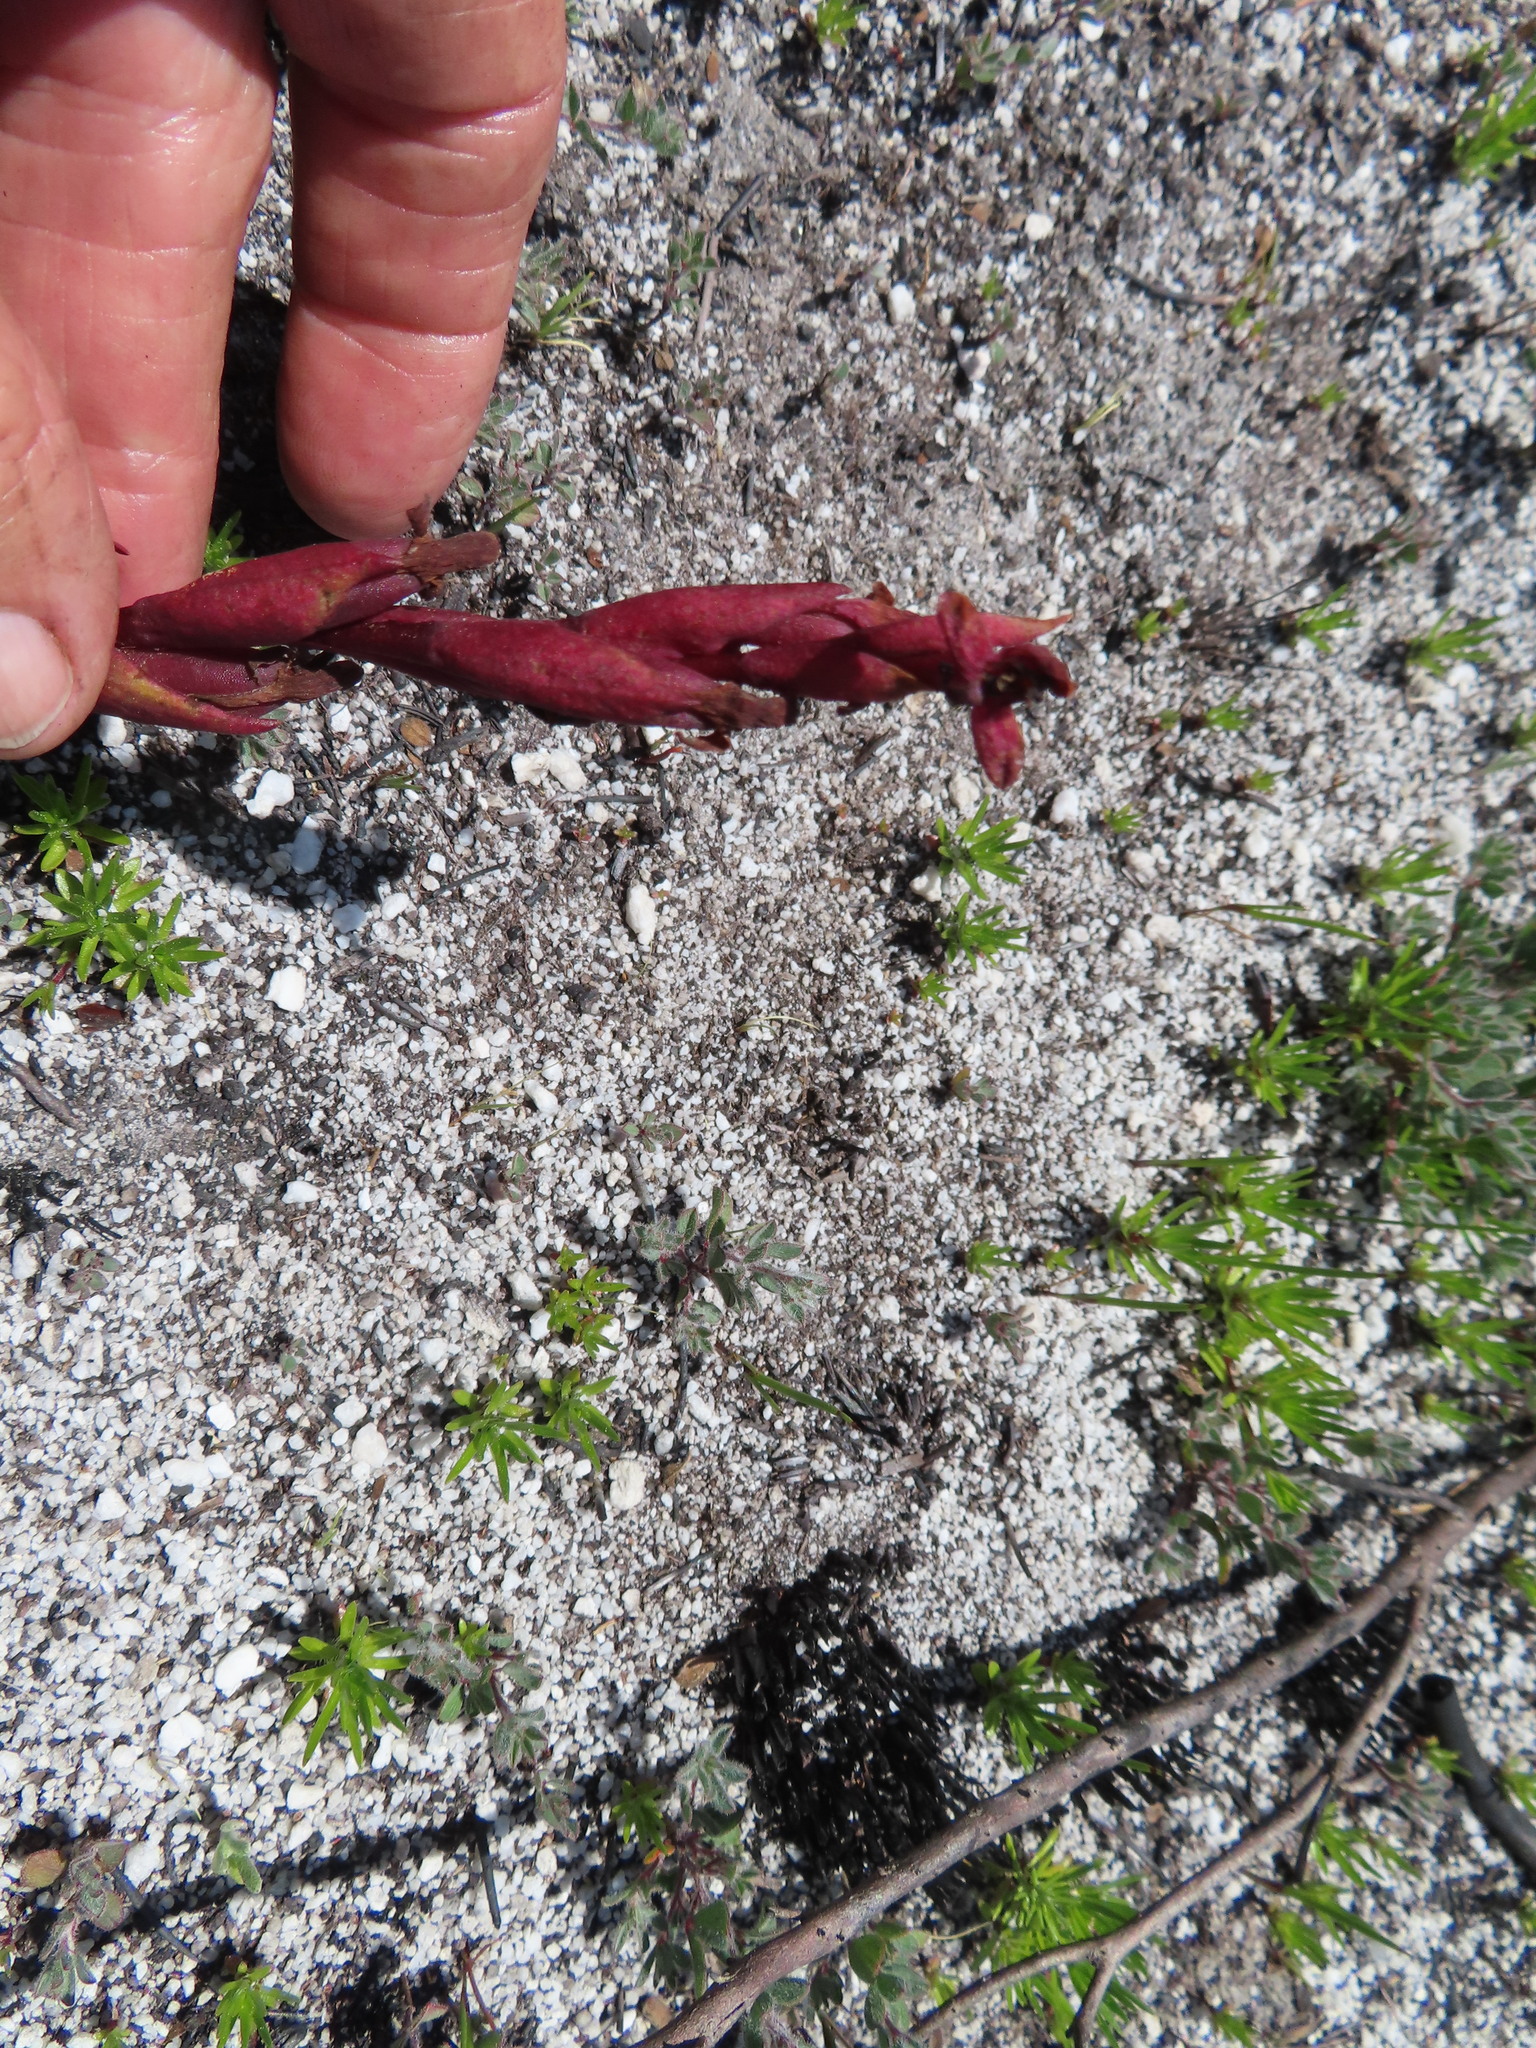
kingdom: Plantae
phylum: Tracheophyta
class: Liliopsida
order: Asparagales
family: Orchidaceae
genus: Disa
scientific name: Disa ophrydea
